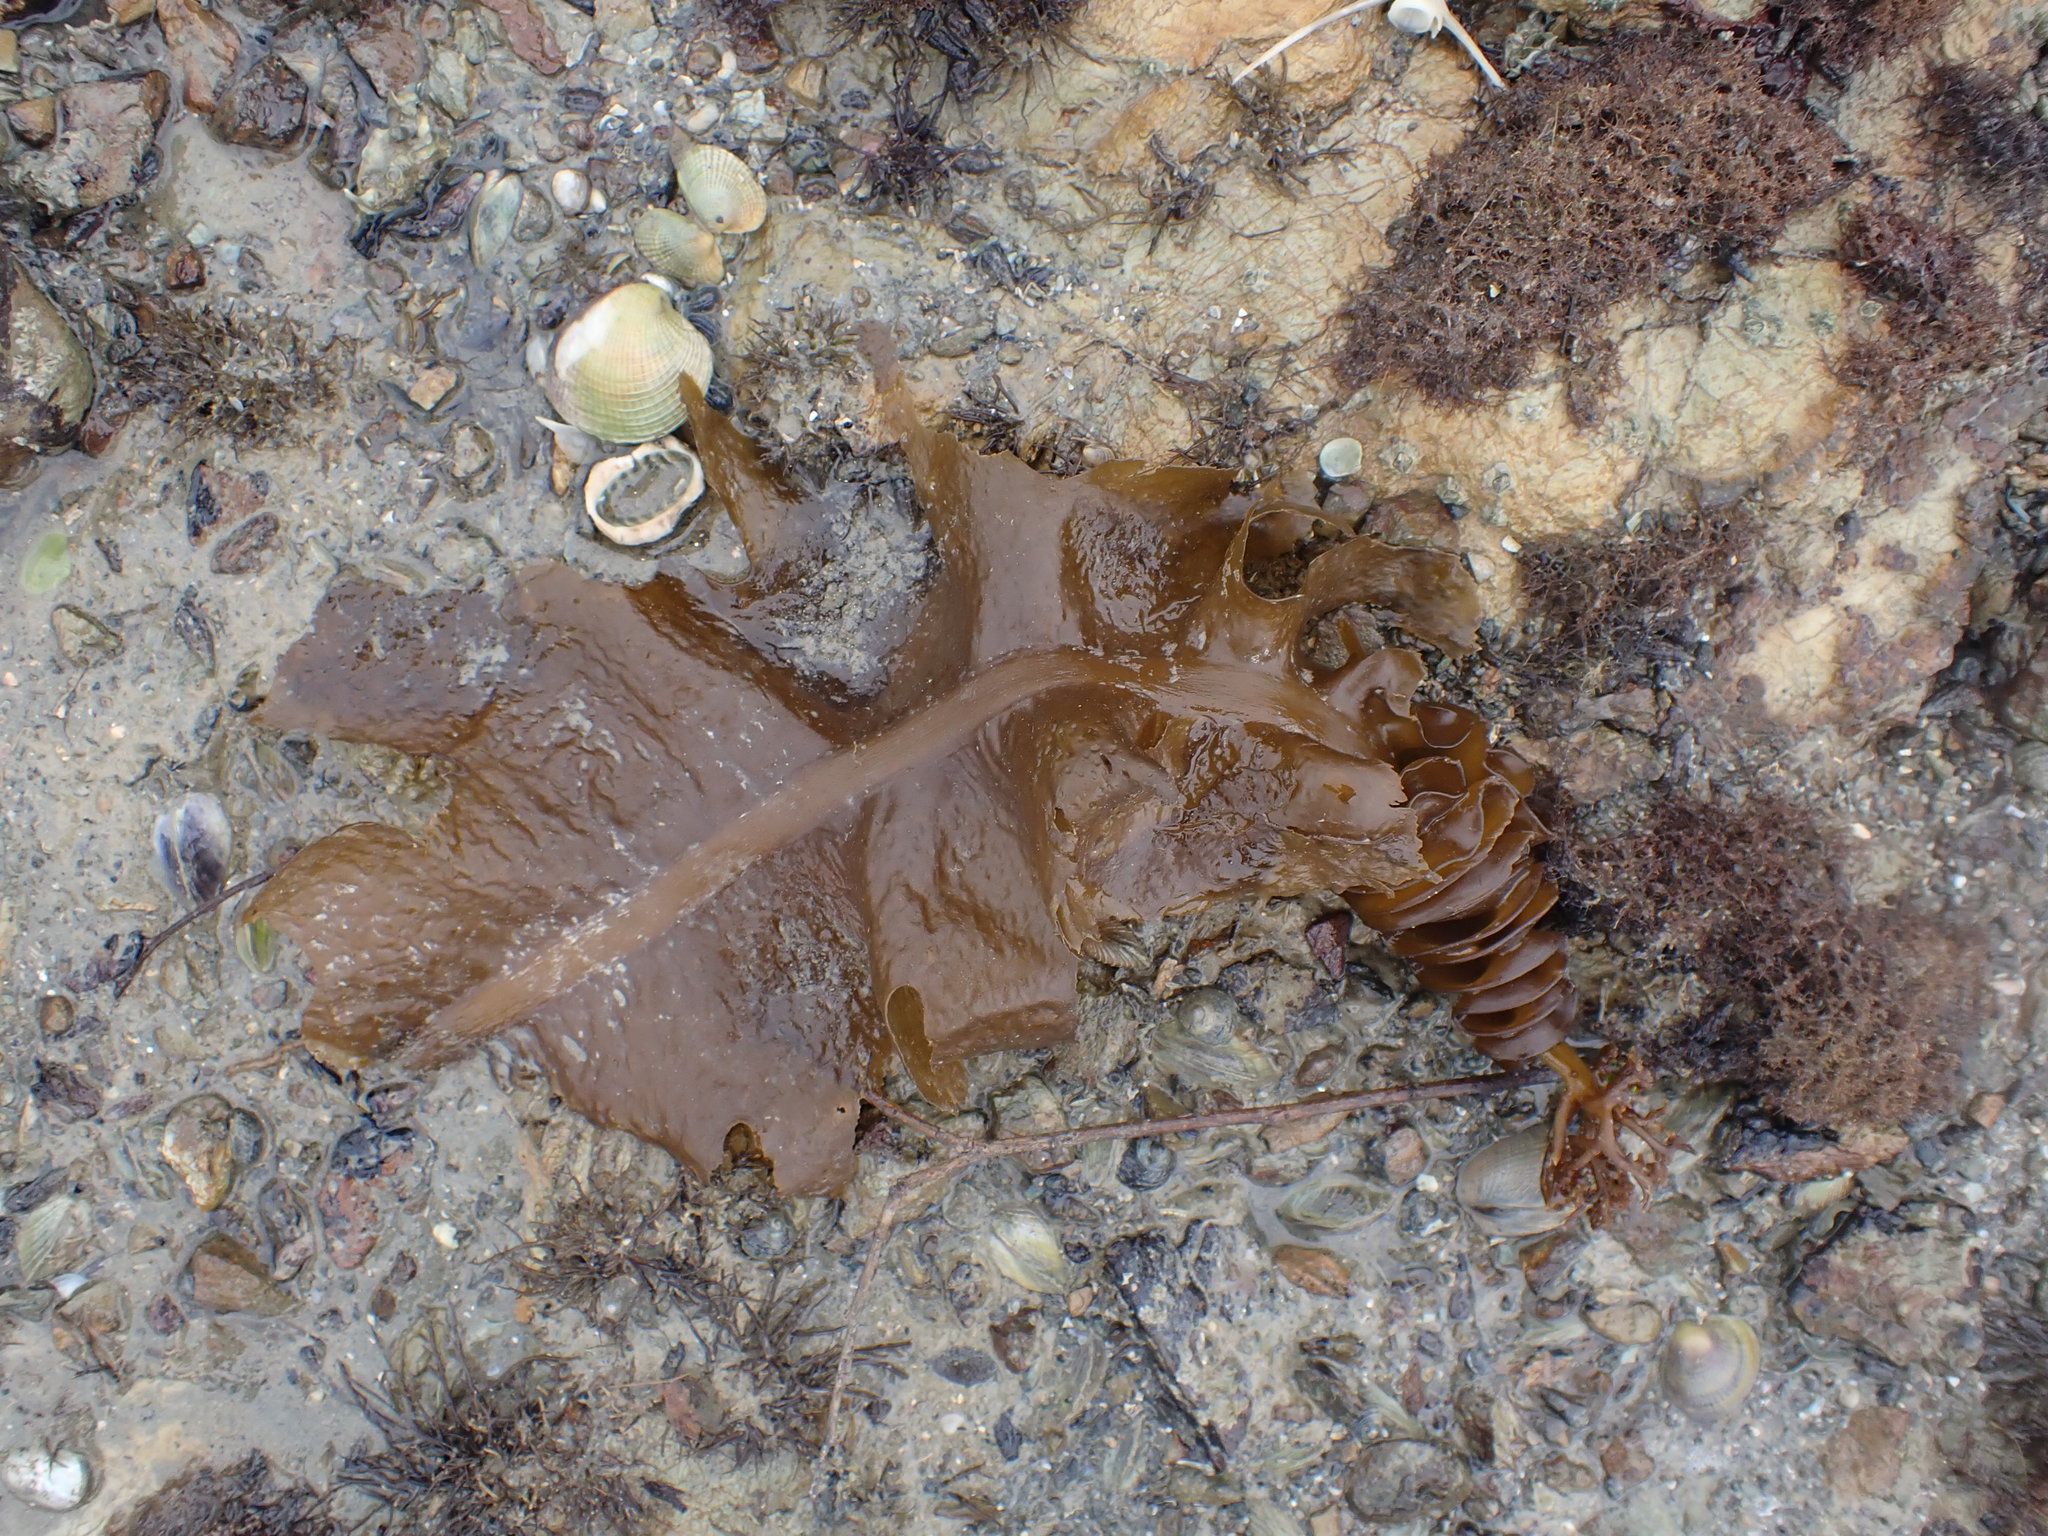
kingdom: Chromista
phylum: Ochrophyta
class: Phaeophyceae
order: Laminariales
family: Alariaceae
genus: Undaria
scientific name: Undaria pinnatifida
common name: Asian kelp
